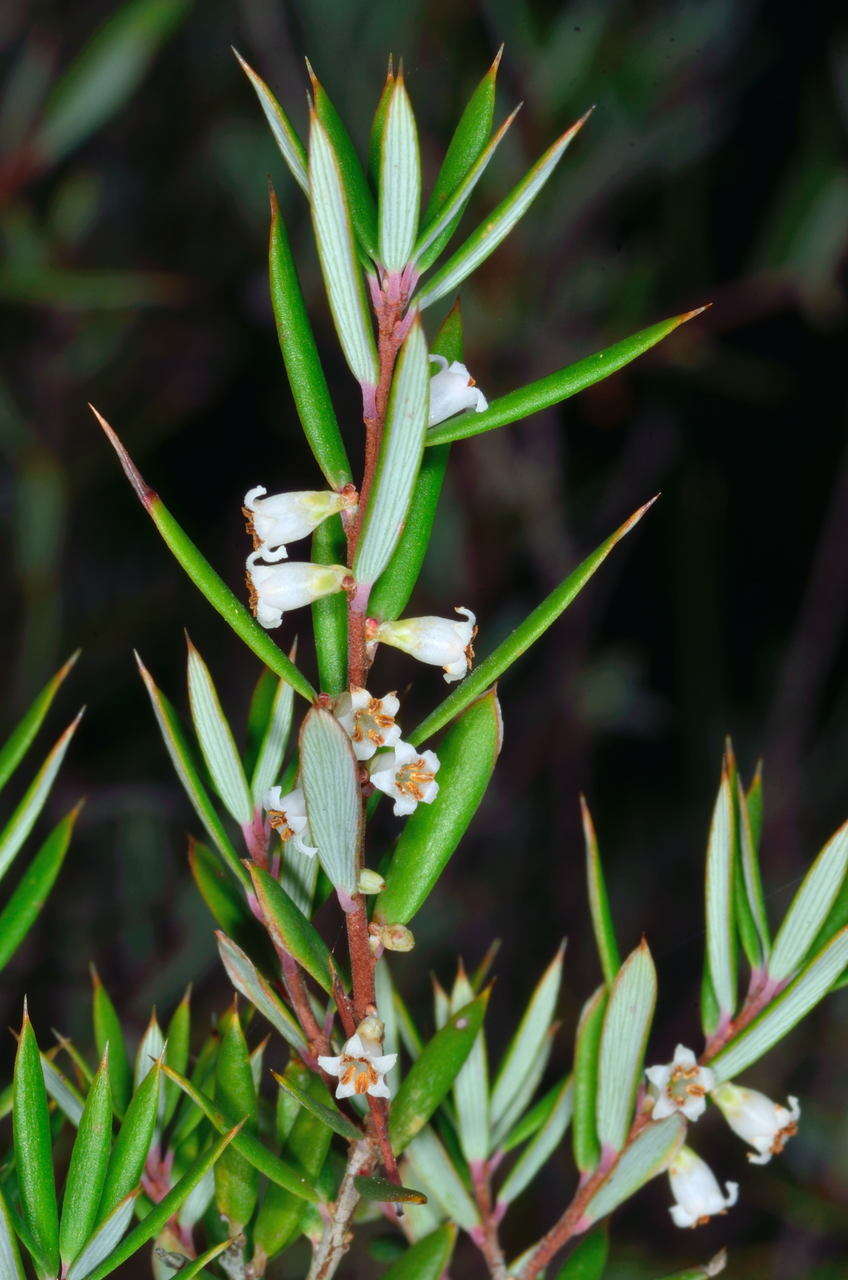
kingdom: Plantae
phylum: Tracheophyta
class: Magnoliopsida
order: Ericales
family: Ericaceae
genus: Monotoca
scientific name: Monotoca scoparia
